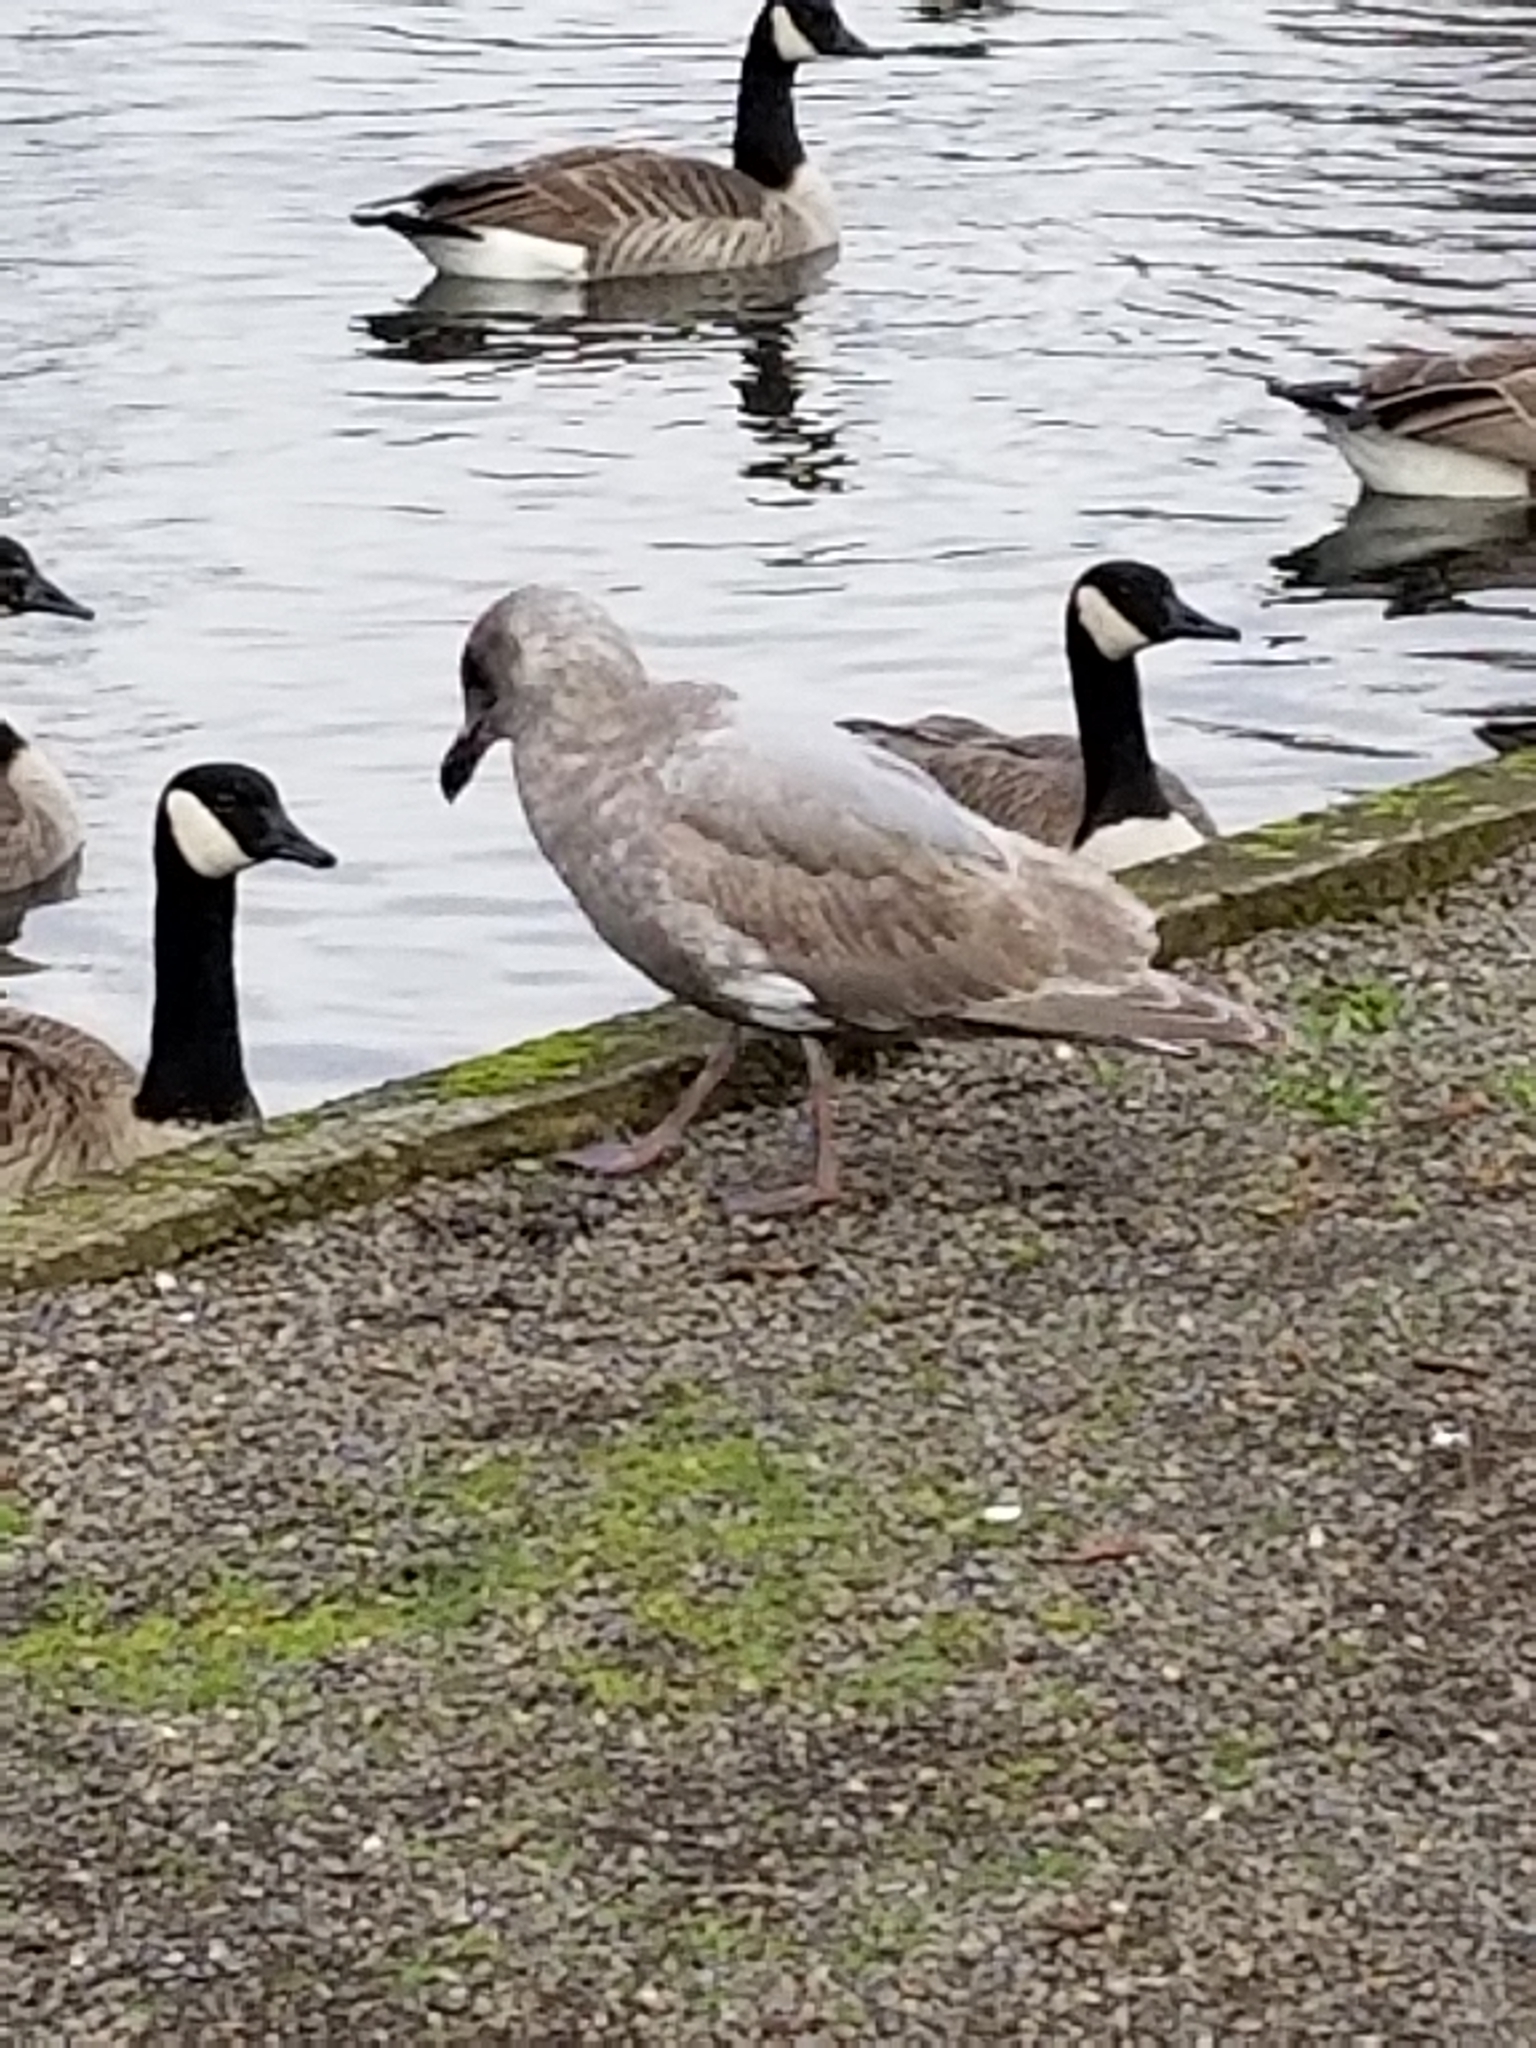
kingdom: Animalia
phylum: Chordata
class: Aves
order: Charadriiformes
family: Laridae
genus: Larus
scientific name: Larus glaucescens
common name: Glaucous-winged gull
